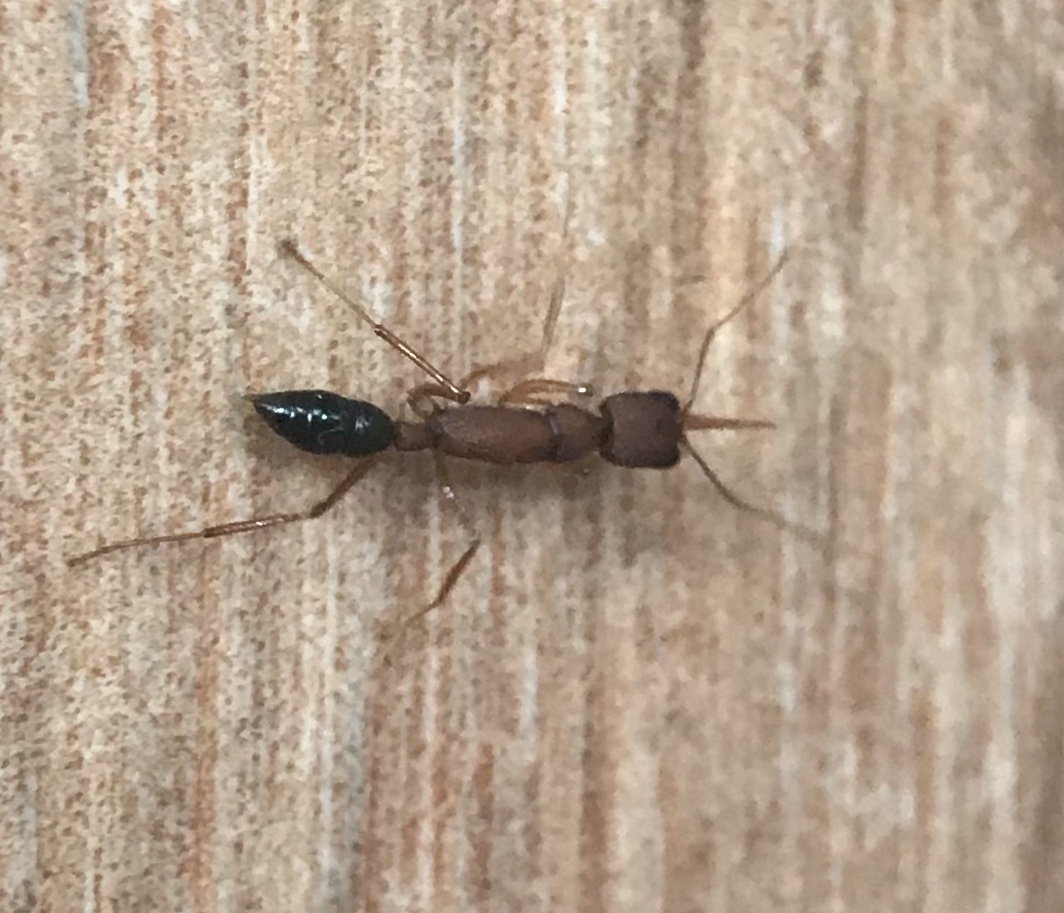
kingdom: Animalia
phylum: Arthropoda
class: Insecta
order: Hymenoptera
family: Formicidae
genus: Harpegnathos
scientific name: Harpegnathos saltator
